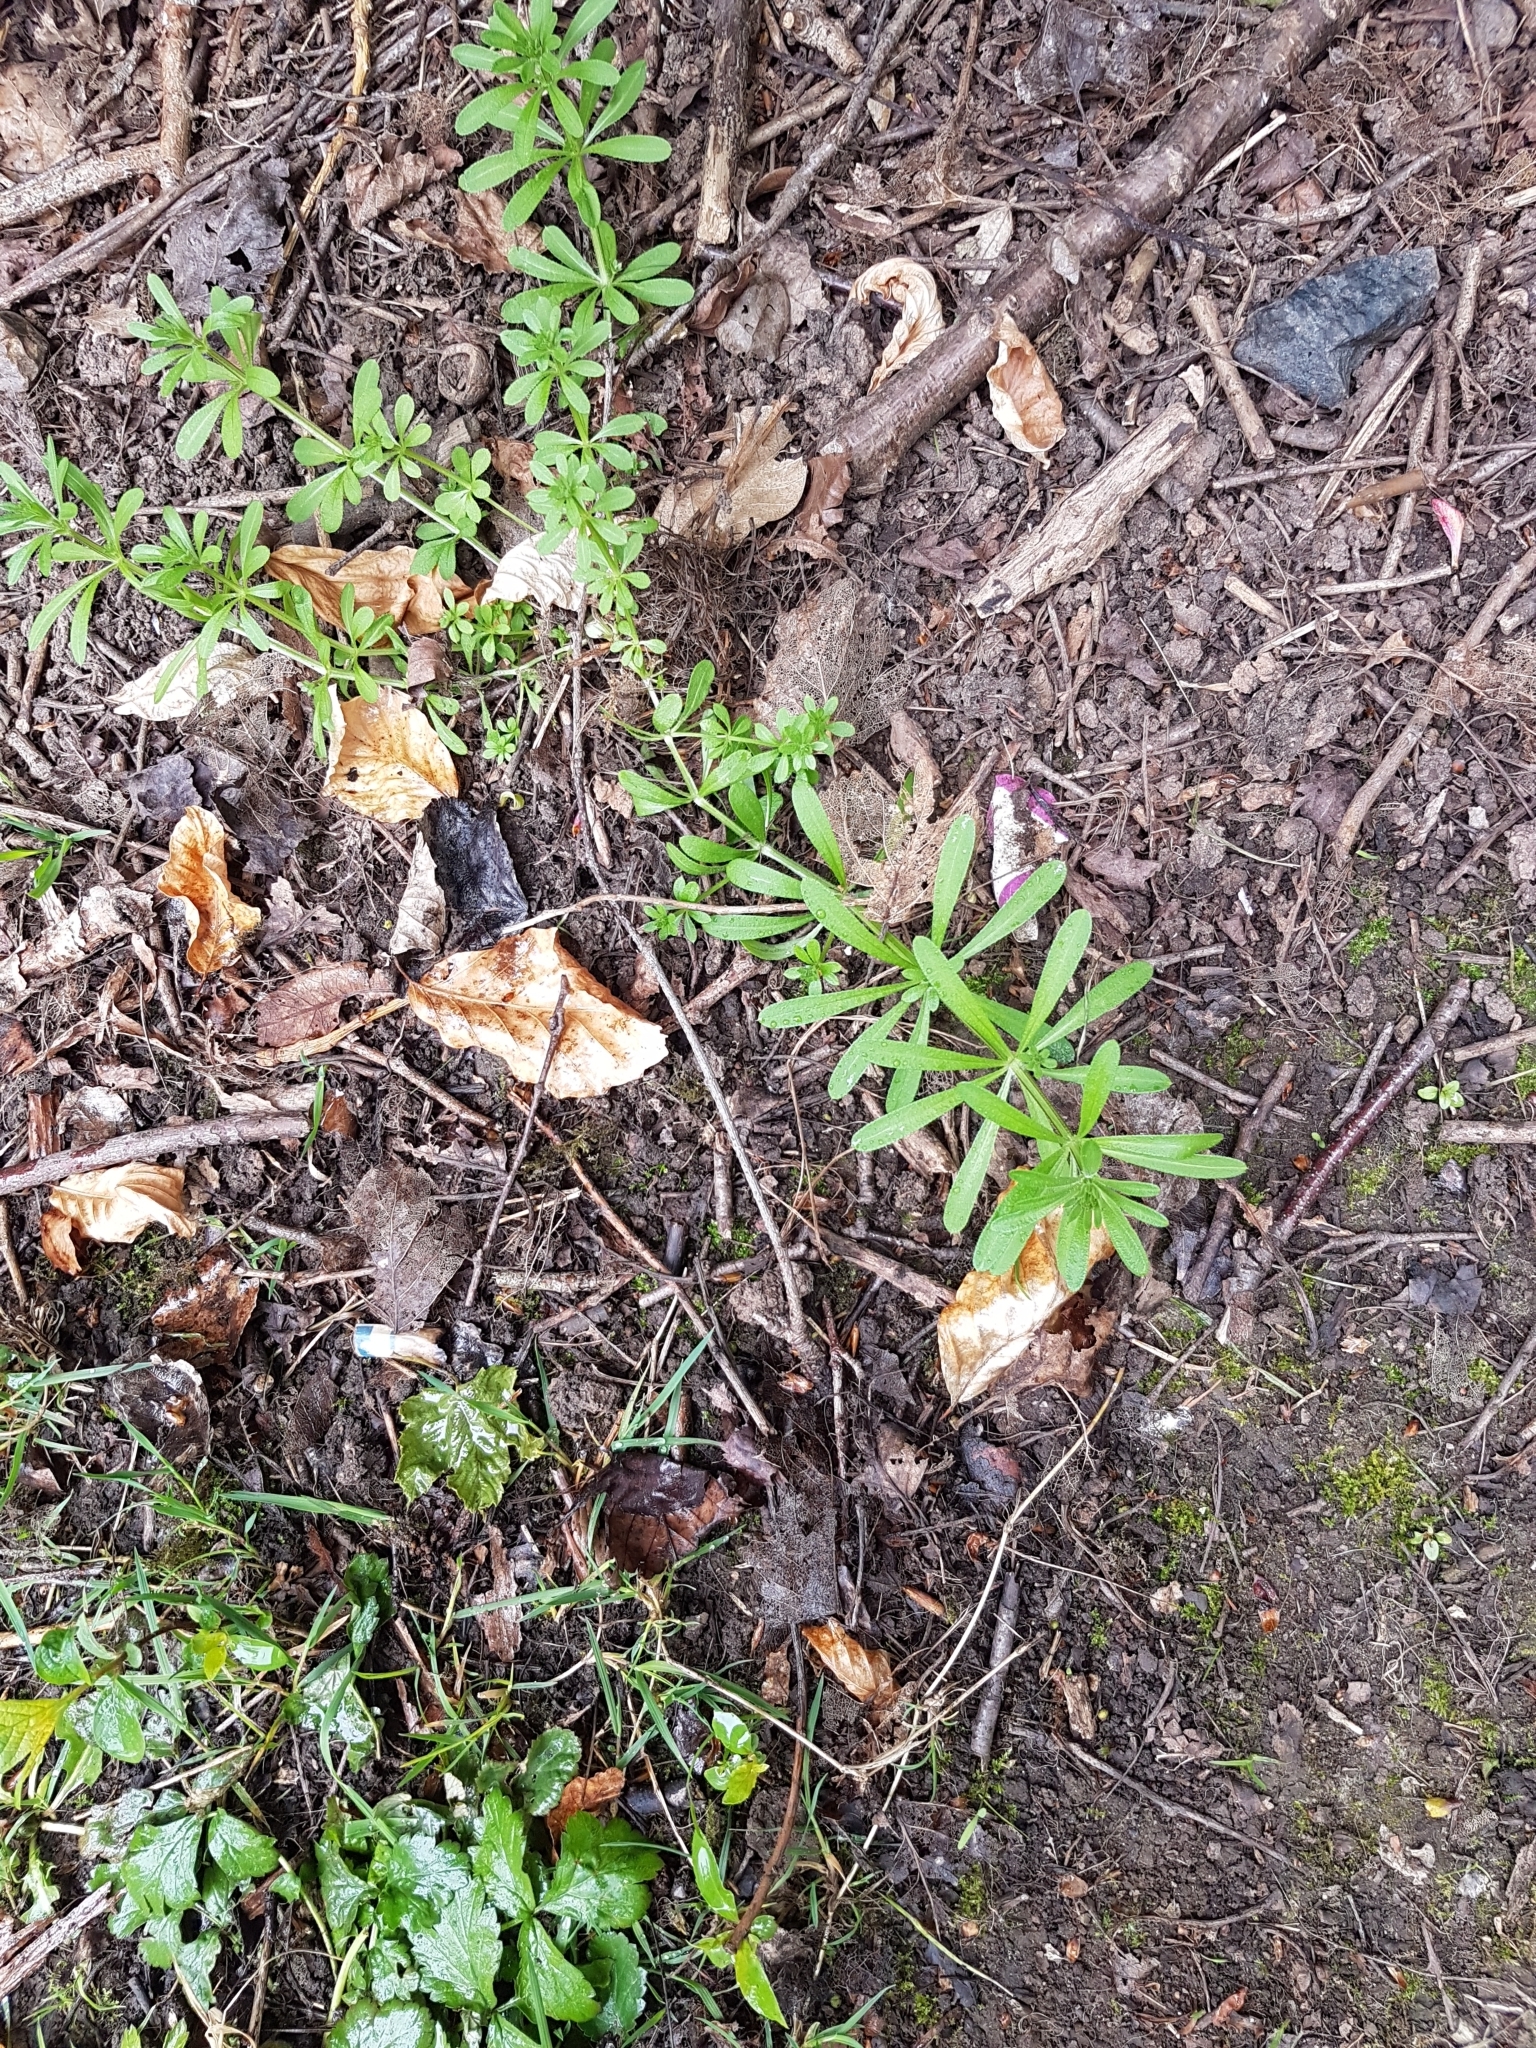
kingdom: Plantae
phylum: Tracheophyta
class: Magnoliopsida
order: Gentianales
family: Rubiaceae
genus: Galium
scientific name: Galium aparine
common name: Cleavers
